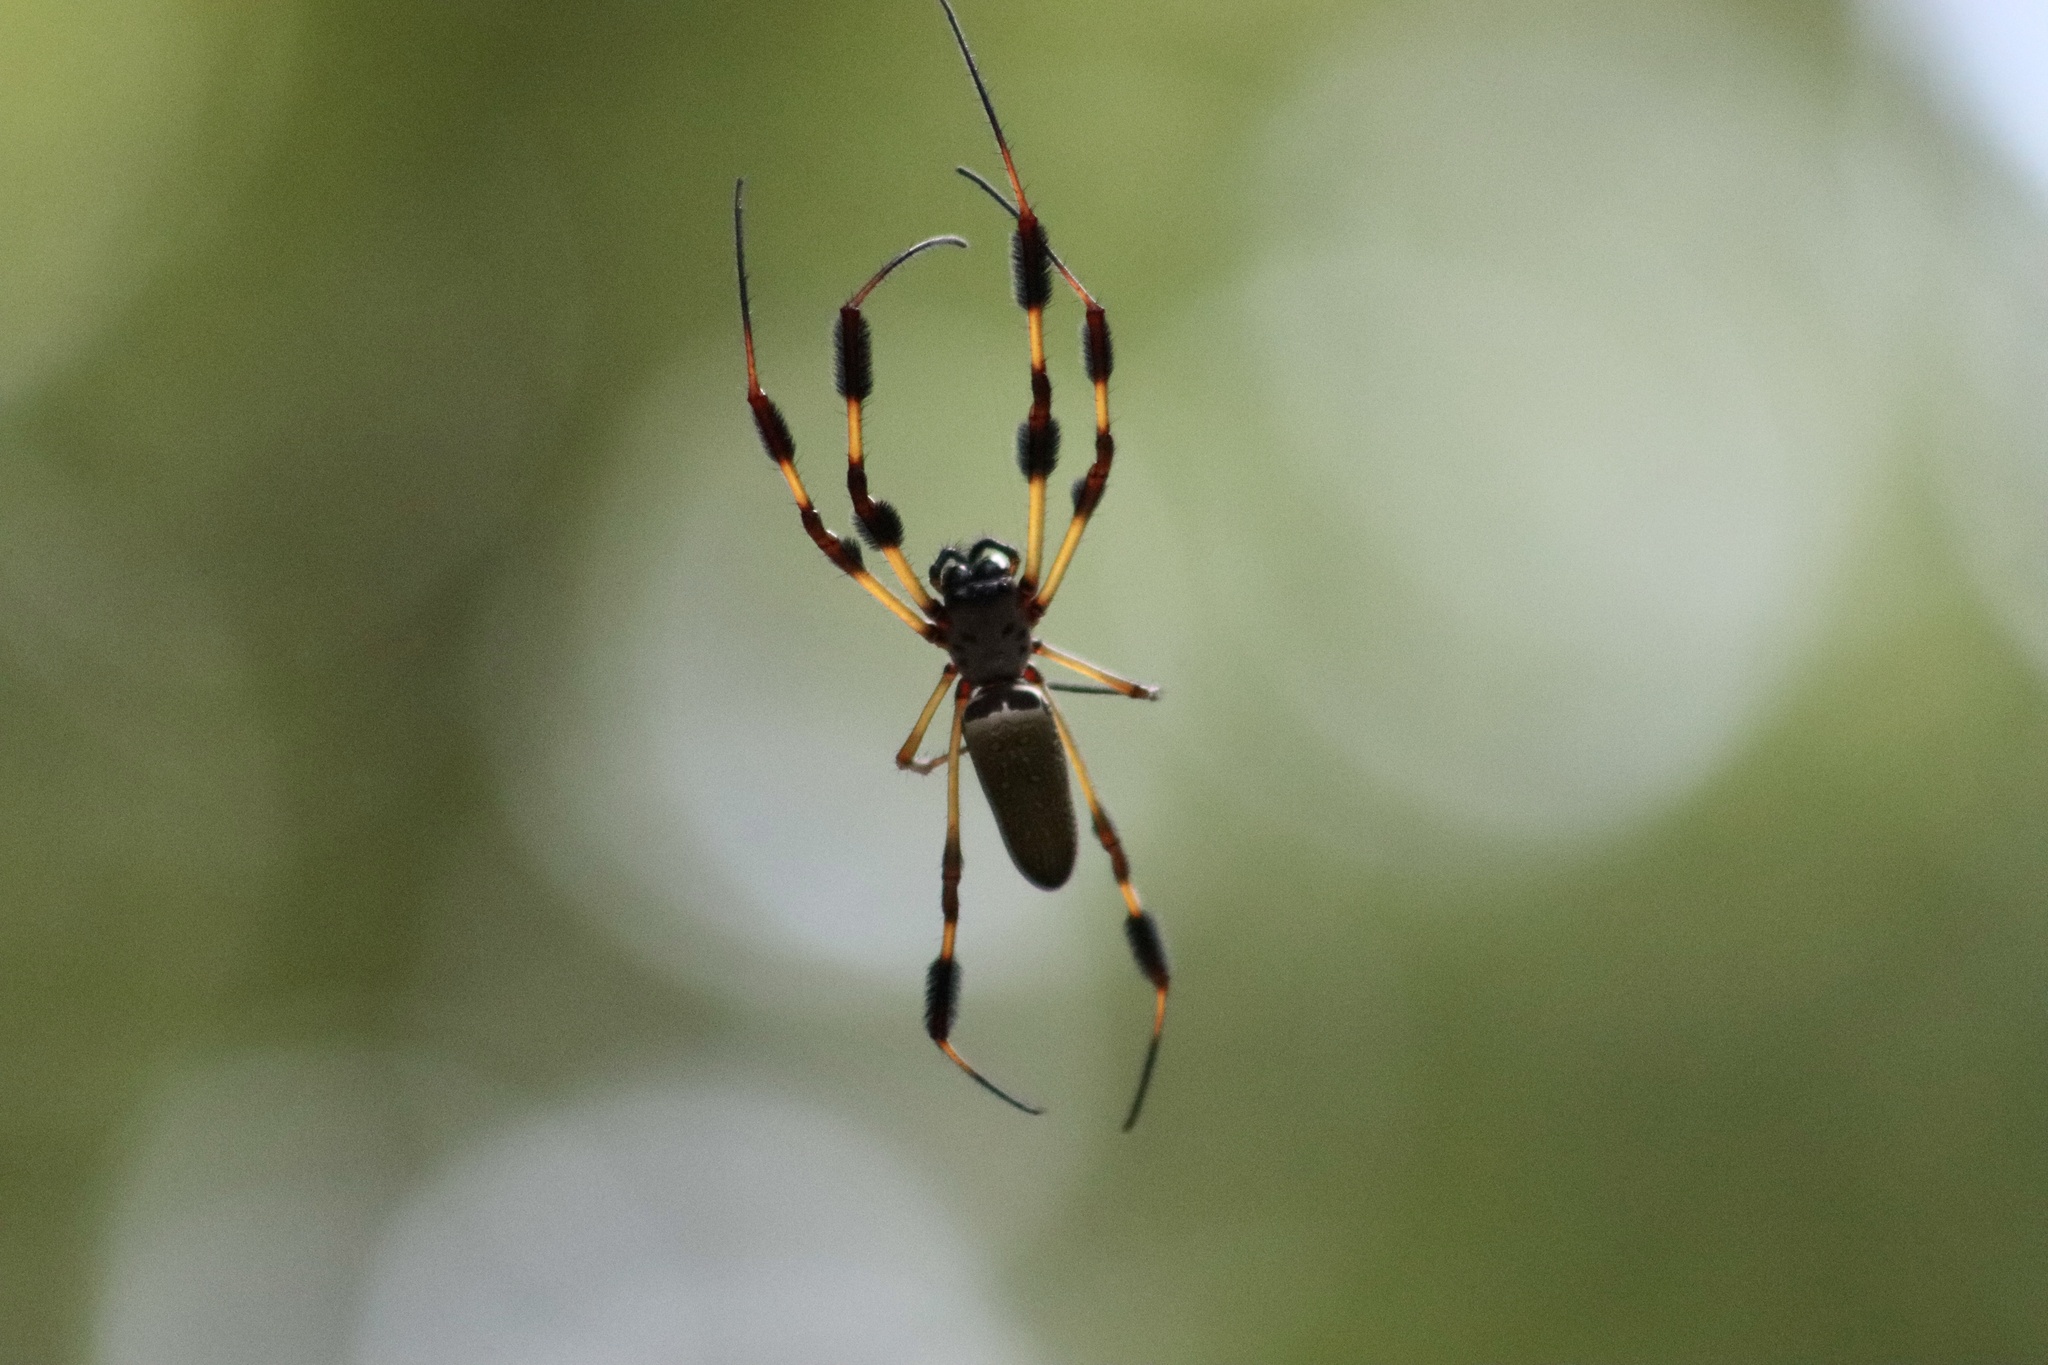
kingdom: Animalia
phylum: Arthropoda
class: Arachnida
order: Araneae
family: Araneidae
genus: Trichonephila
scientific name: Trichonephila clavipes
